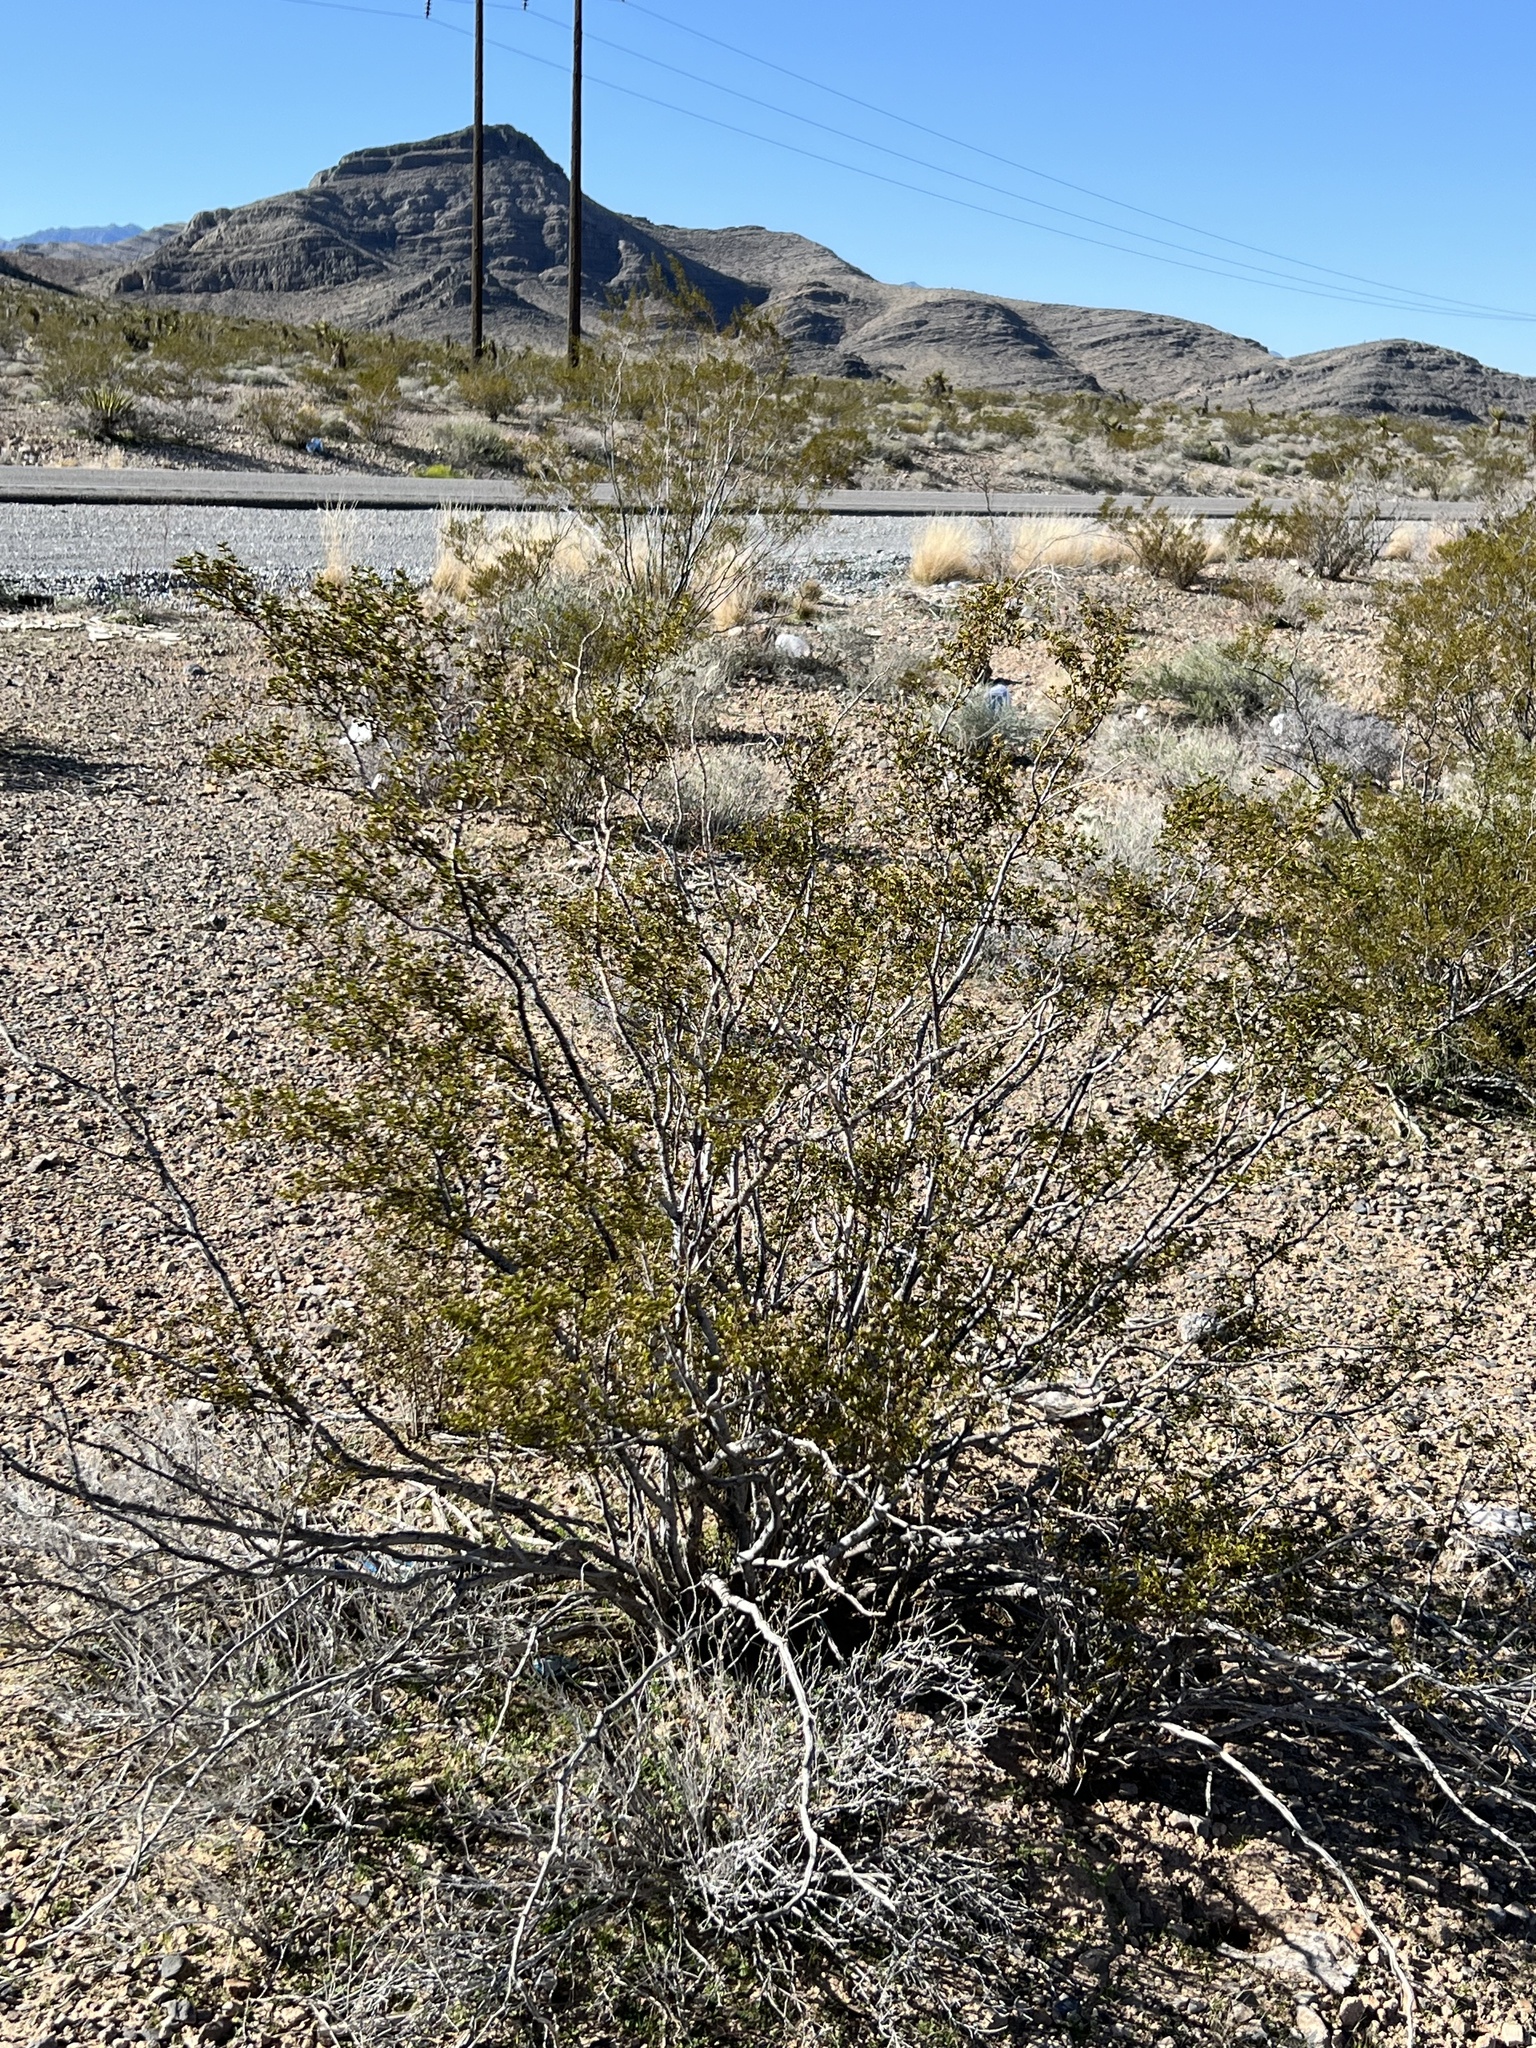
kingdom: Plantae
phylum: Tracheophyta
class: Magnoliopsida
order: Zygophyllales
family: Zygophyllaceae
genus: Larrea
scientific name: Larrea tridentata
